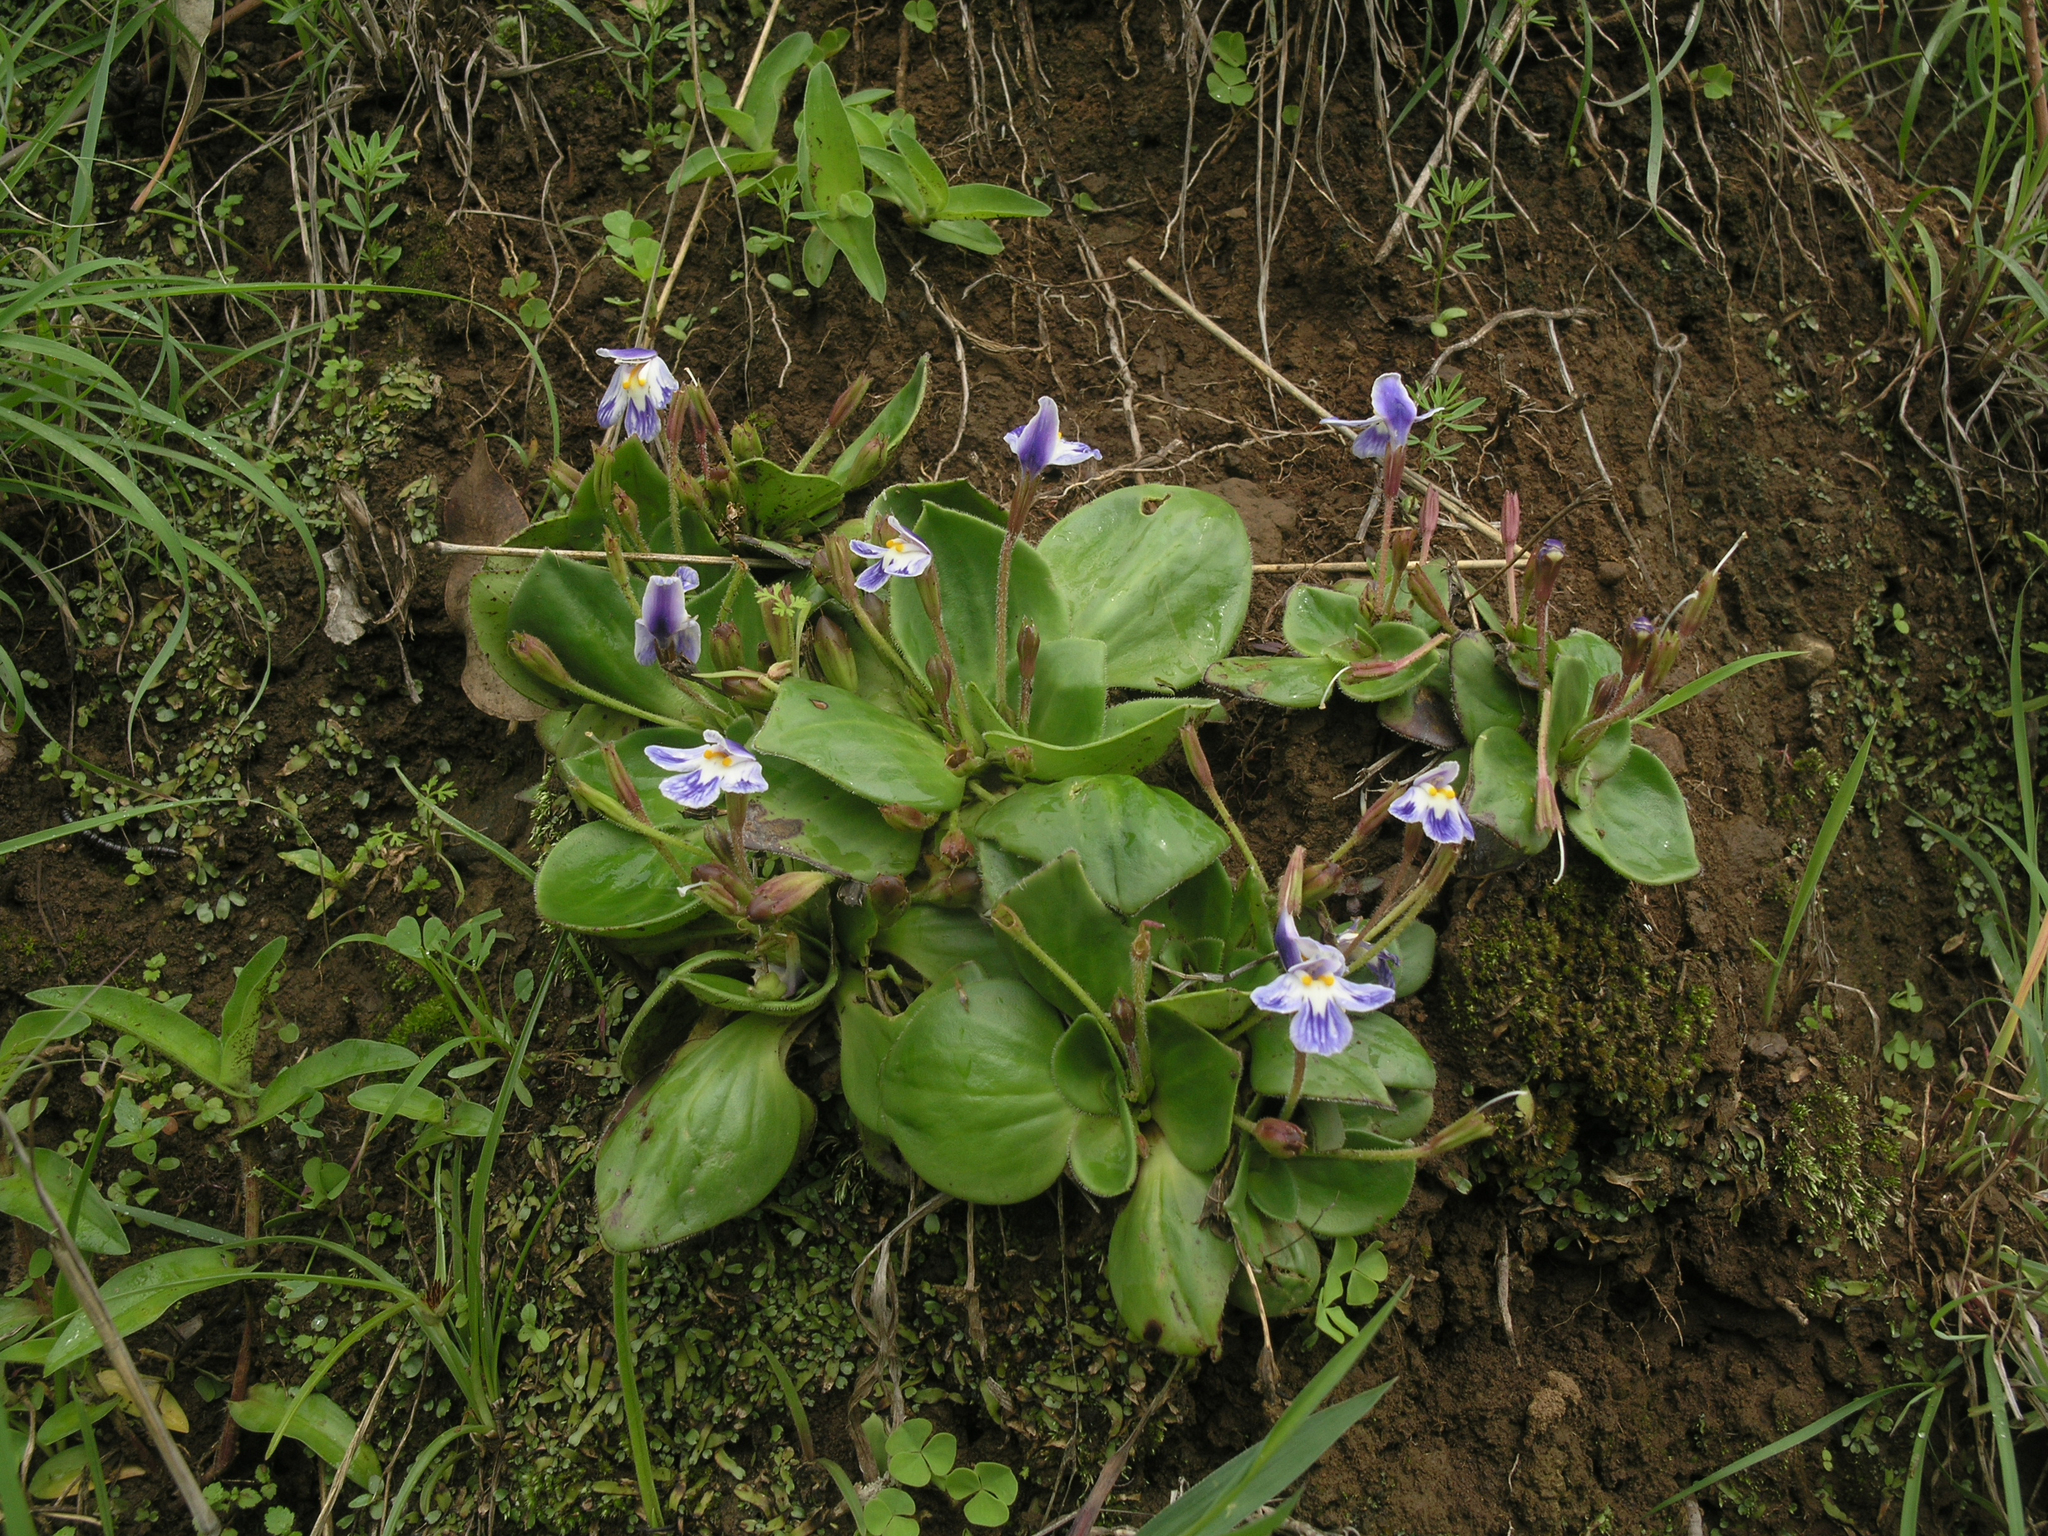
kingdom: Plantae
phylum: Tracheophyta
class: Magnoliopsida
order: Lamiales
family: Linderniaceae
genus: Craterostigma
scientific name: Craterostigma plantagineum
